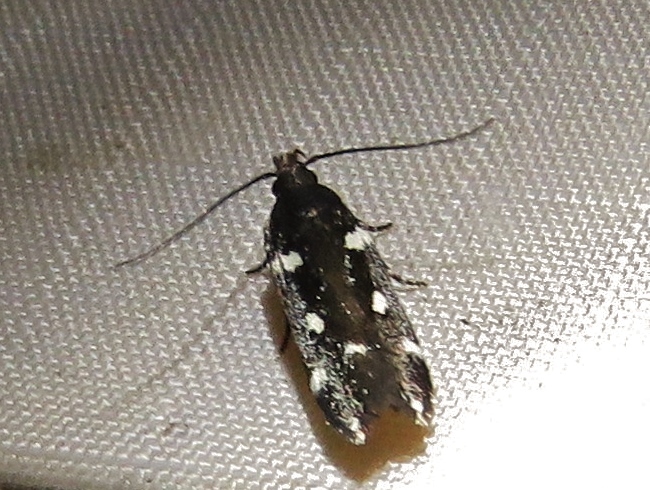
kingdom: Animalia
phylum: Arthropoda
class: Insecta
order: Lepidoptera
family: Gelechiidae
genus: Aroga
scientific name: Aroga compositella
